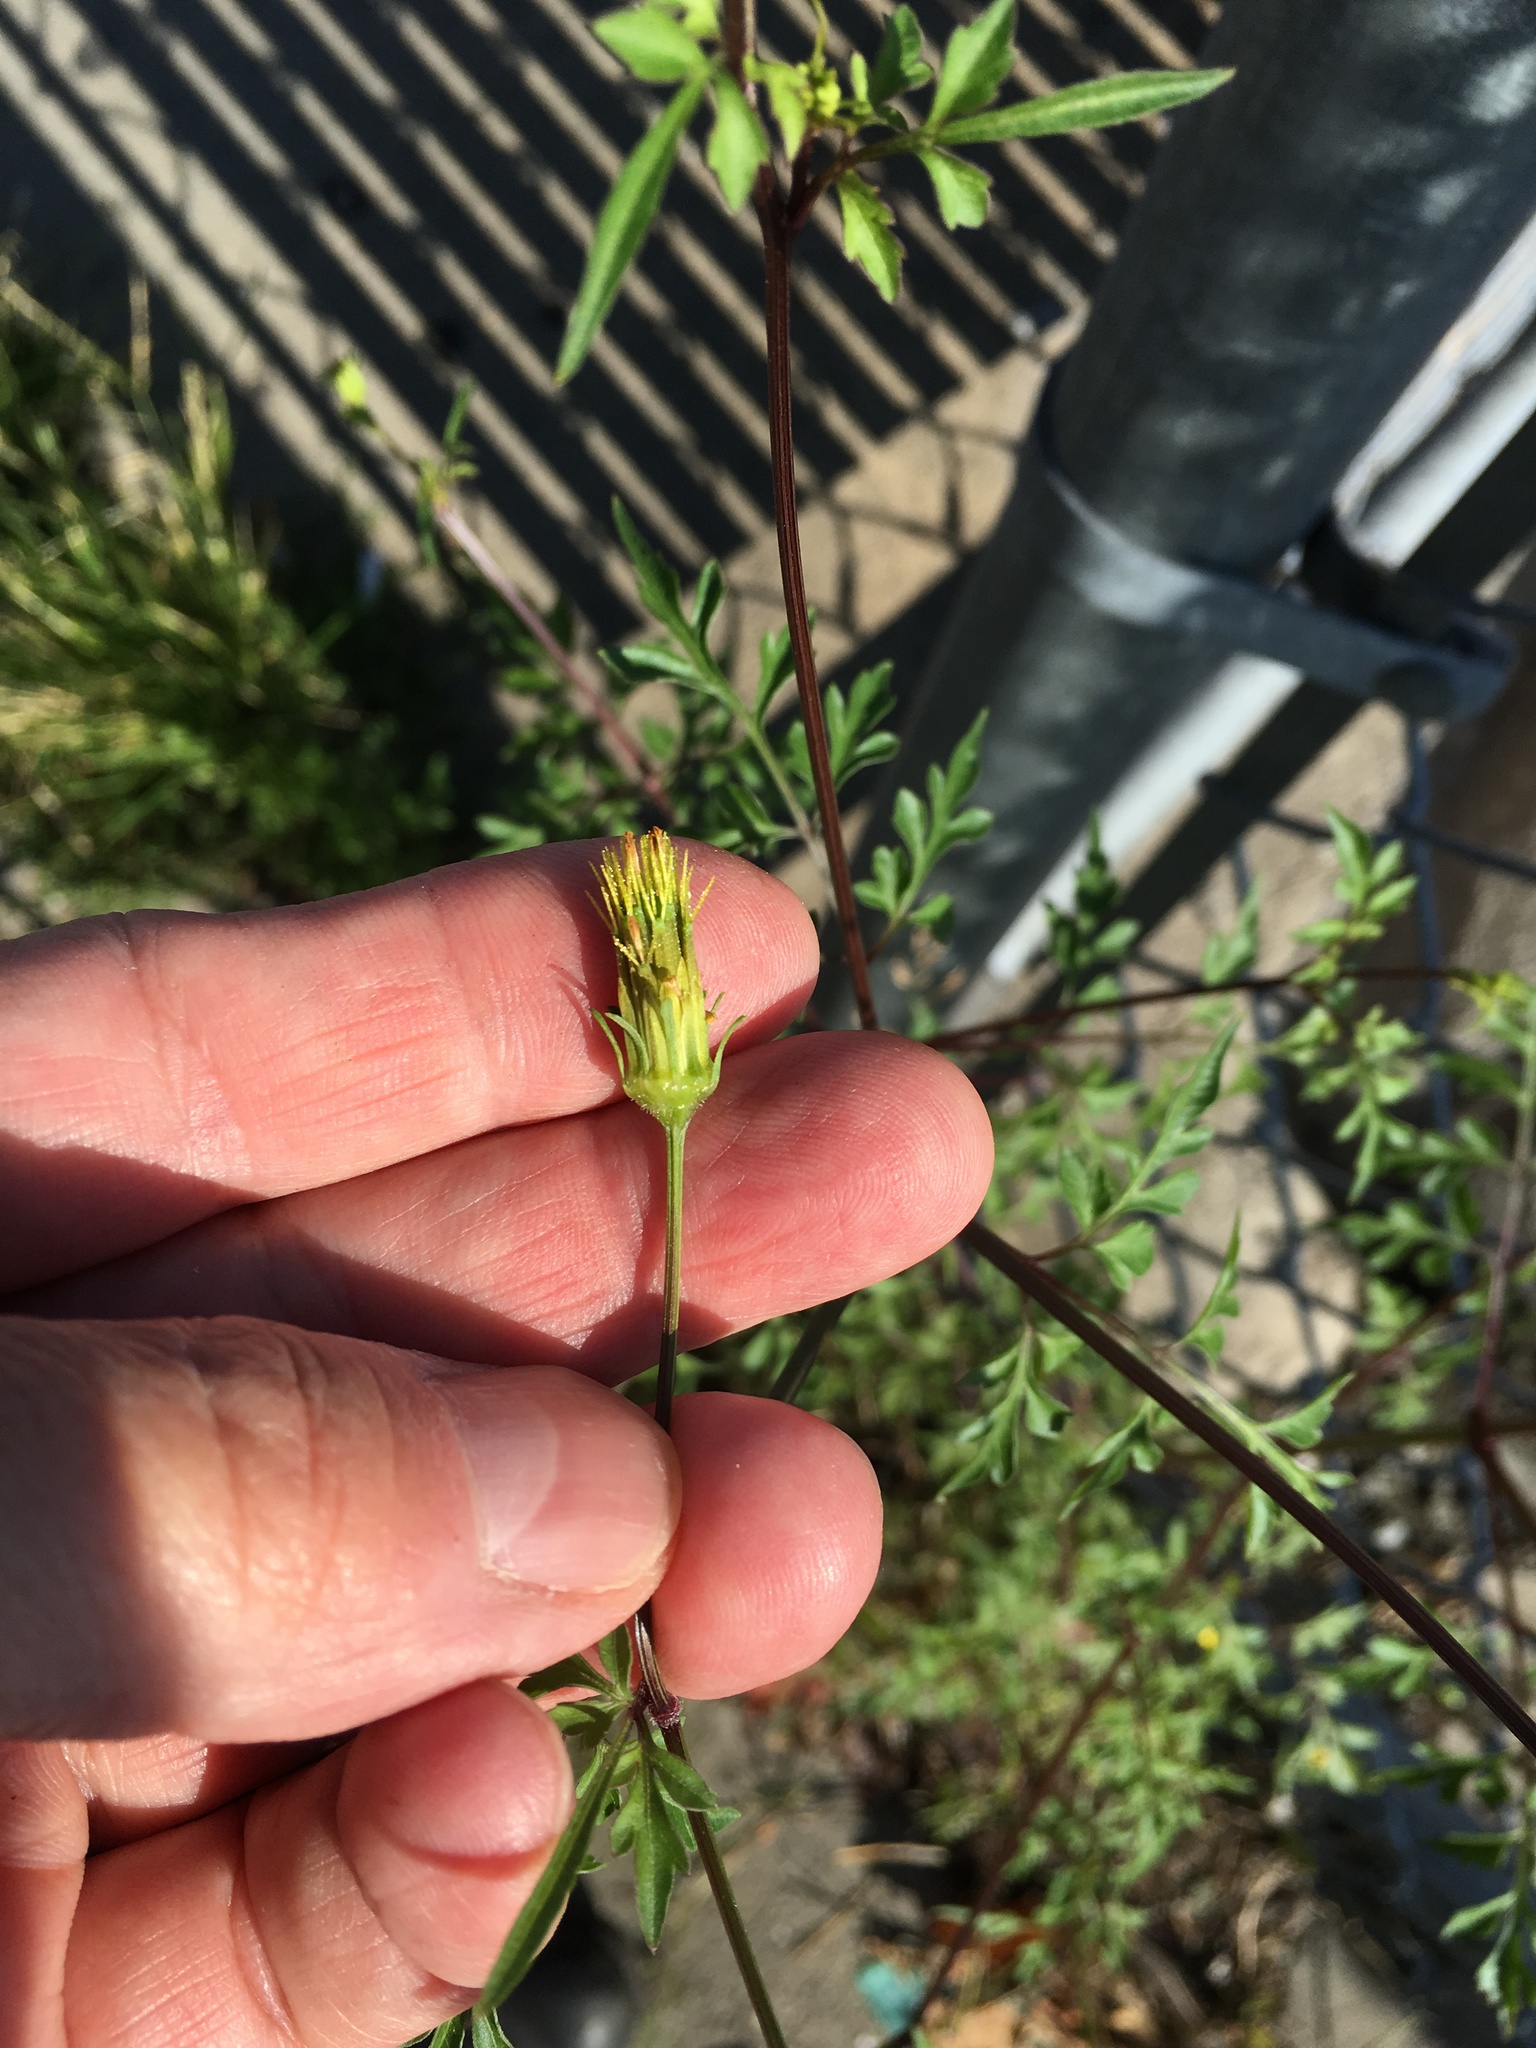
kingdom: Plantae
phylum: Tracheophyta
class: Magnoliopsida
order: Asterales
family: Asteraceae
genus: Bidens
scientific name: Bidens bipinnata
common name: Spanish-needles
